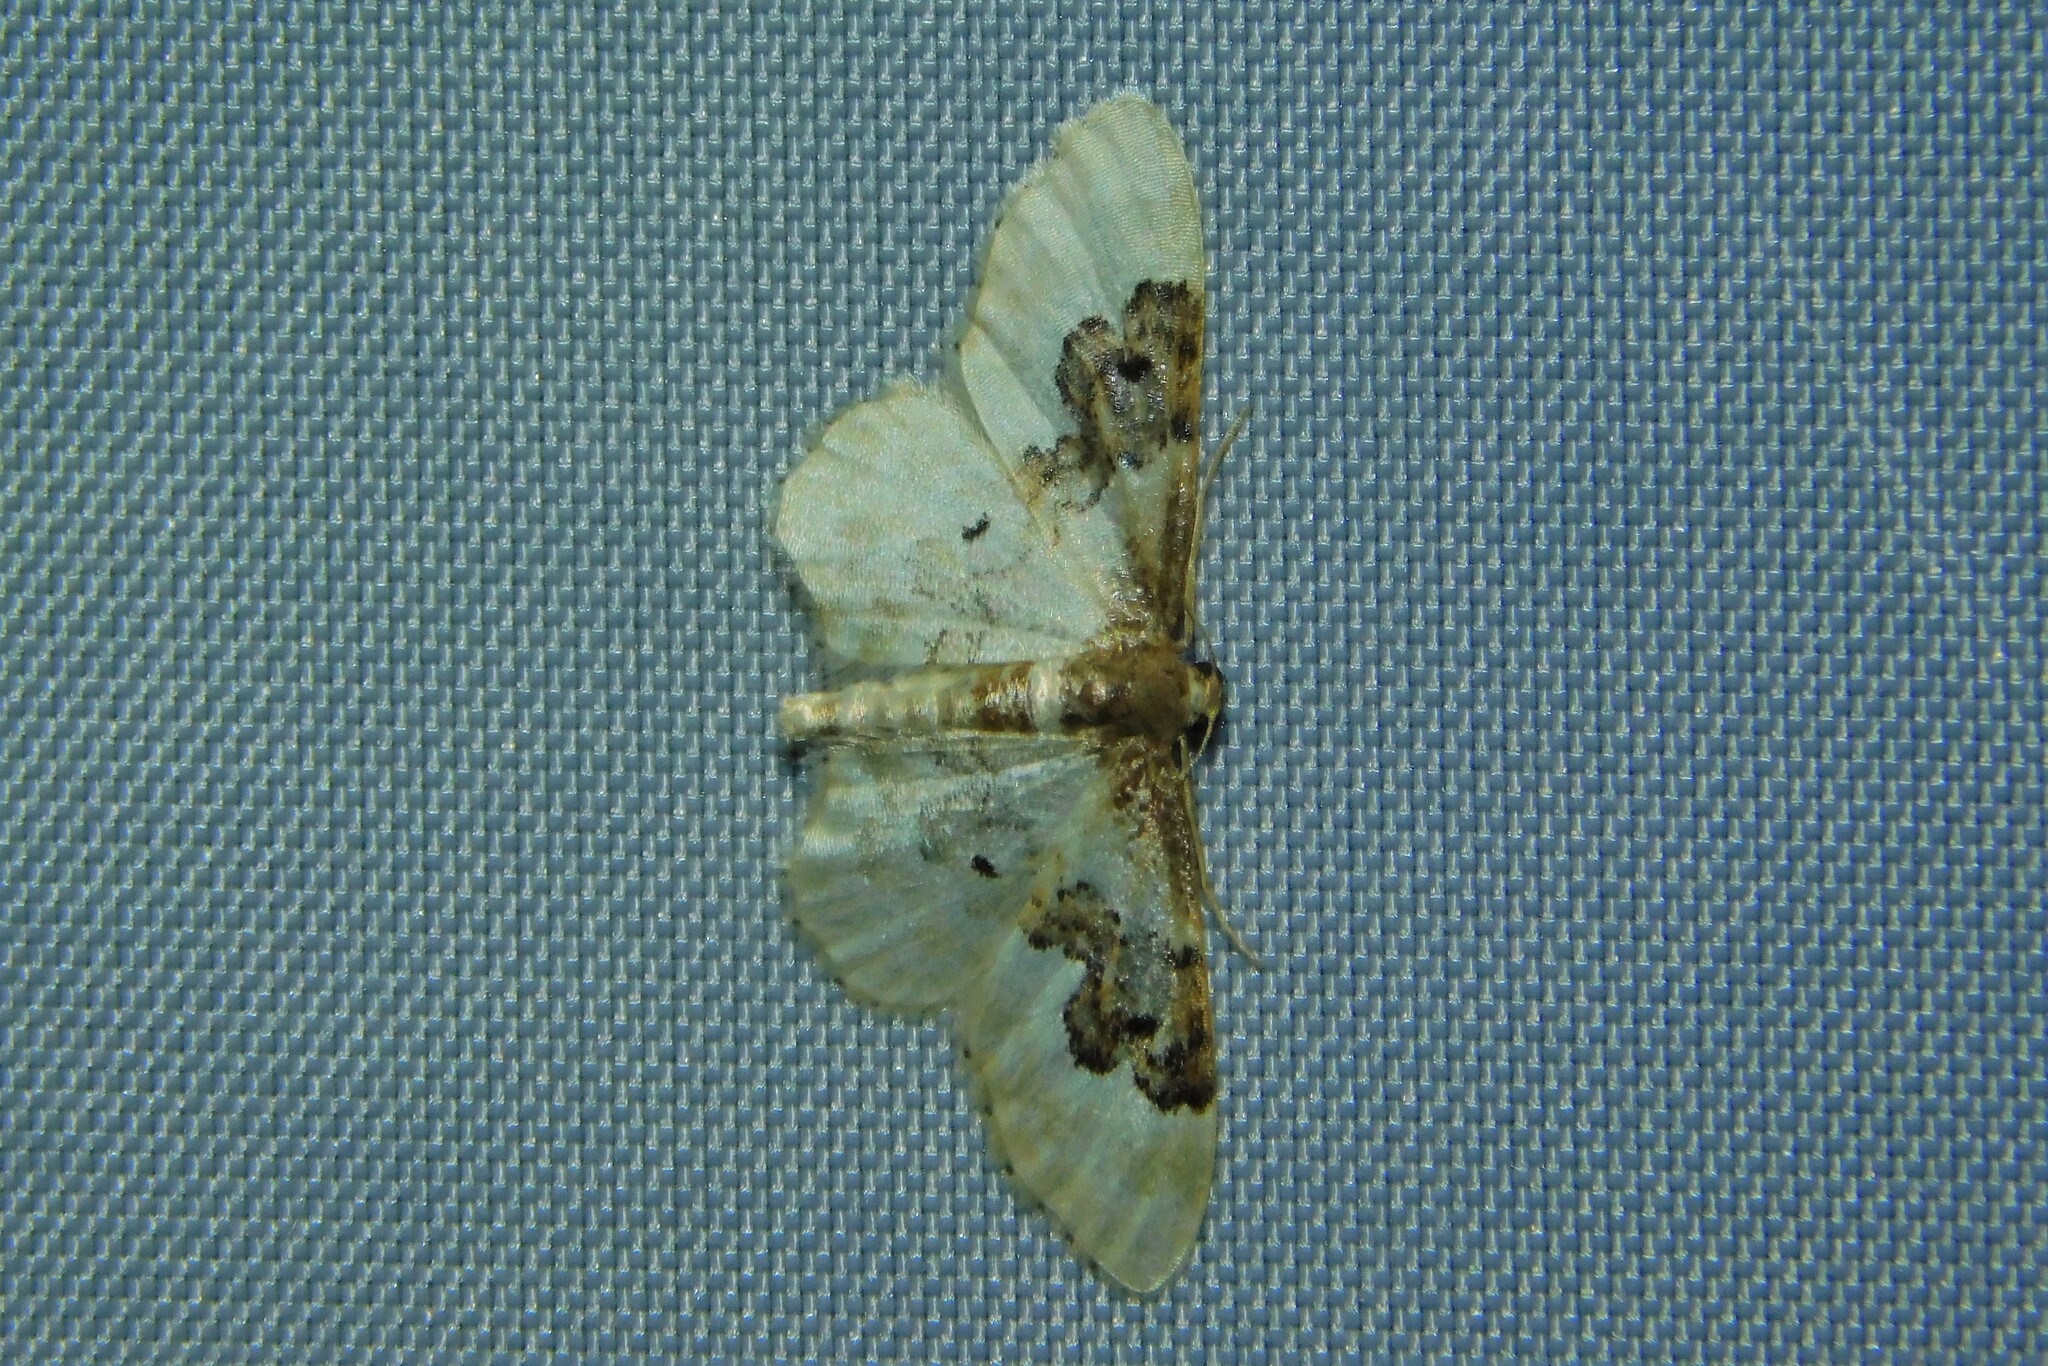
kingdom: Animalia
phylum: Arthropoda
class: Insecta
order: Lepidoptera
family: Geometridae
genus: Idaea
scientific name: Idaea rusticata
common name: Least carpet
